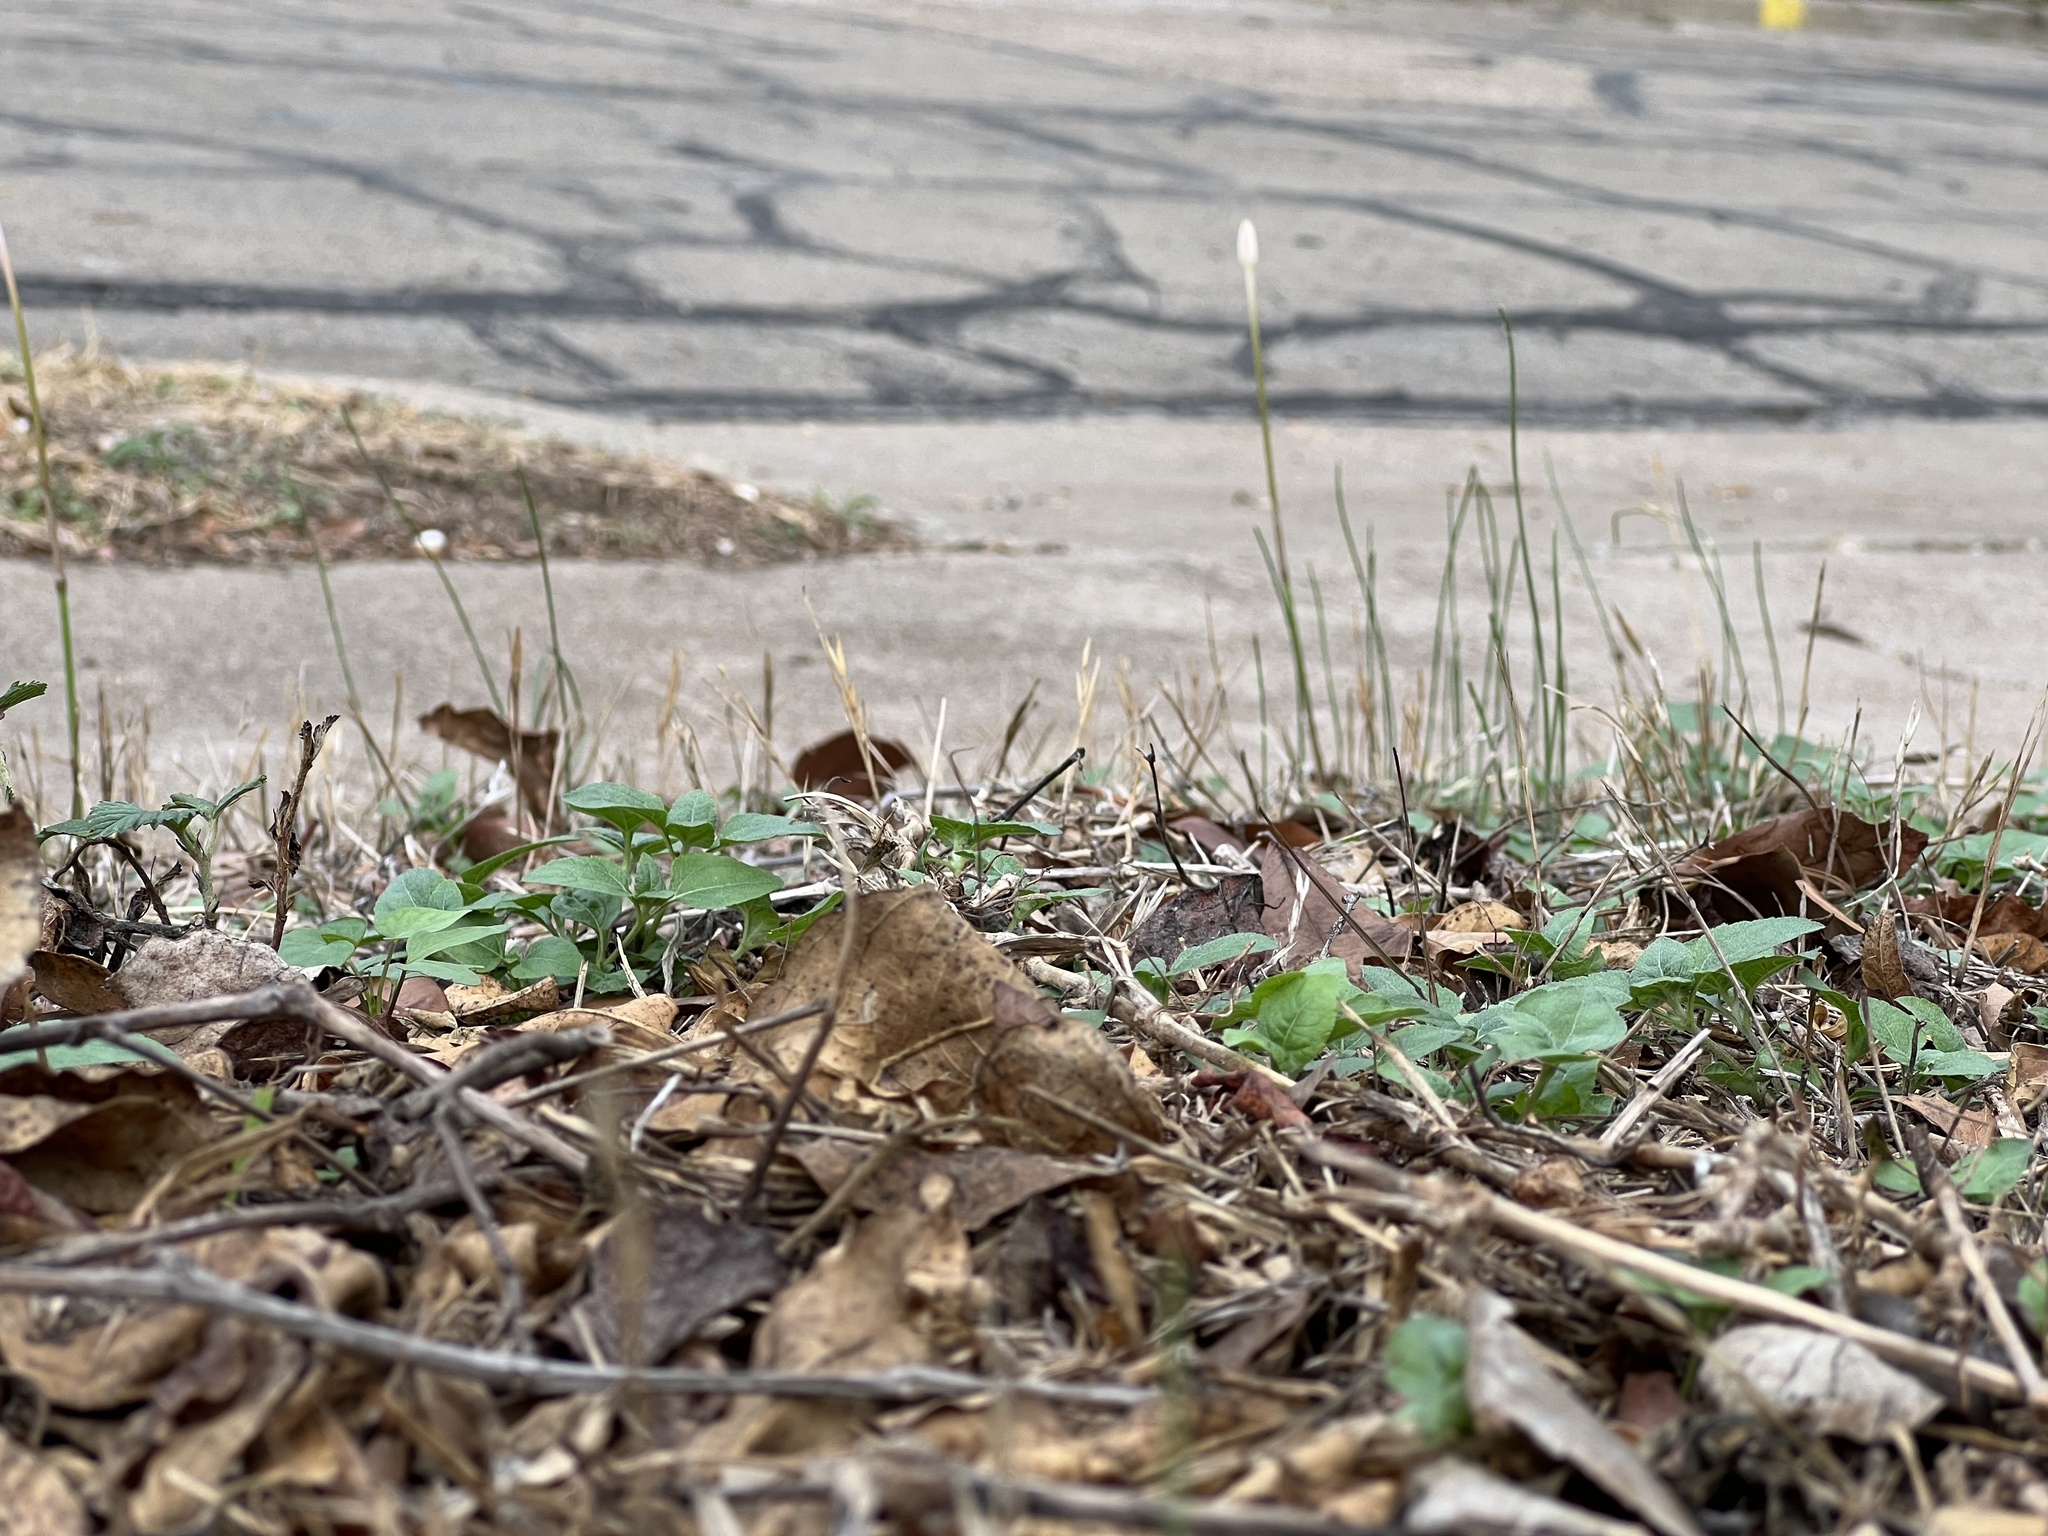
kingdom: Plantae
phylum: Tracheophyta
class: Liliopsida
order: Asparagales
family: Amaryllidaceae
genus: Zephyranthes
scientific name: Zephyranthes chlorosolen
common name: Evening rain-lily
